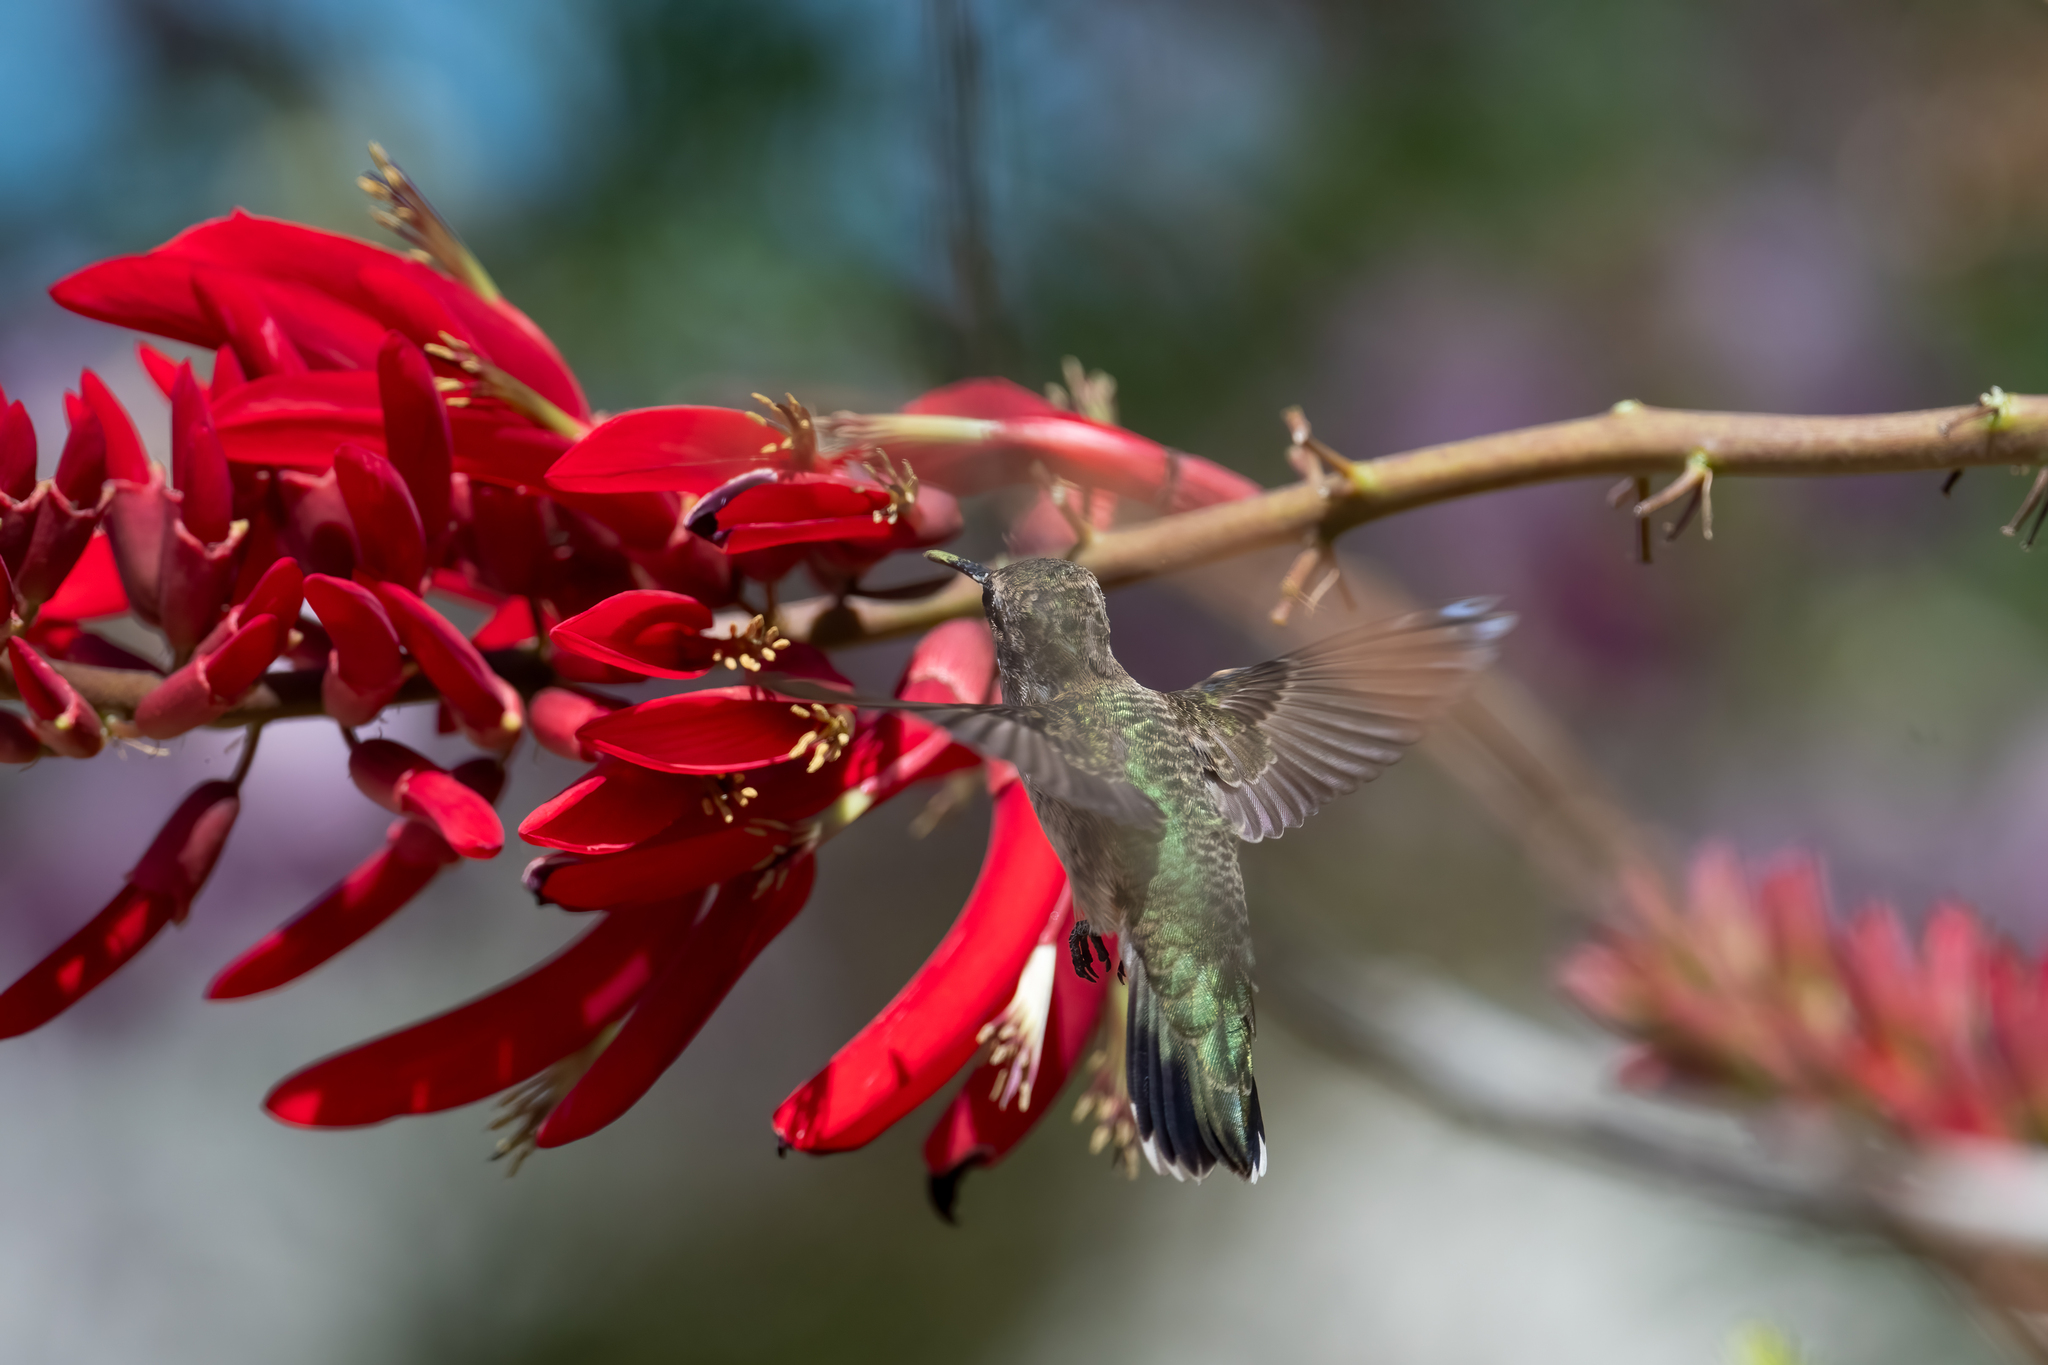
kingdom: Animalia
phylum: Chordata
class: Aves
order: Apodiformes
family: Trochilidae
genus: Archilochus
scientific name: Archilochus alexandri
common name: Black-chinned hummingbird
